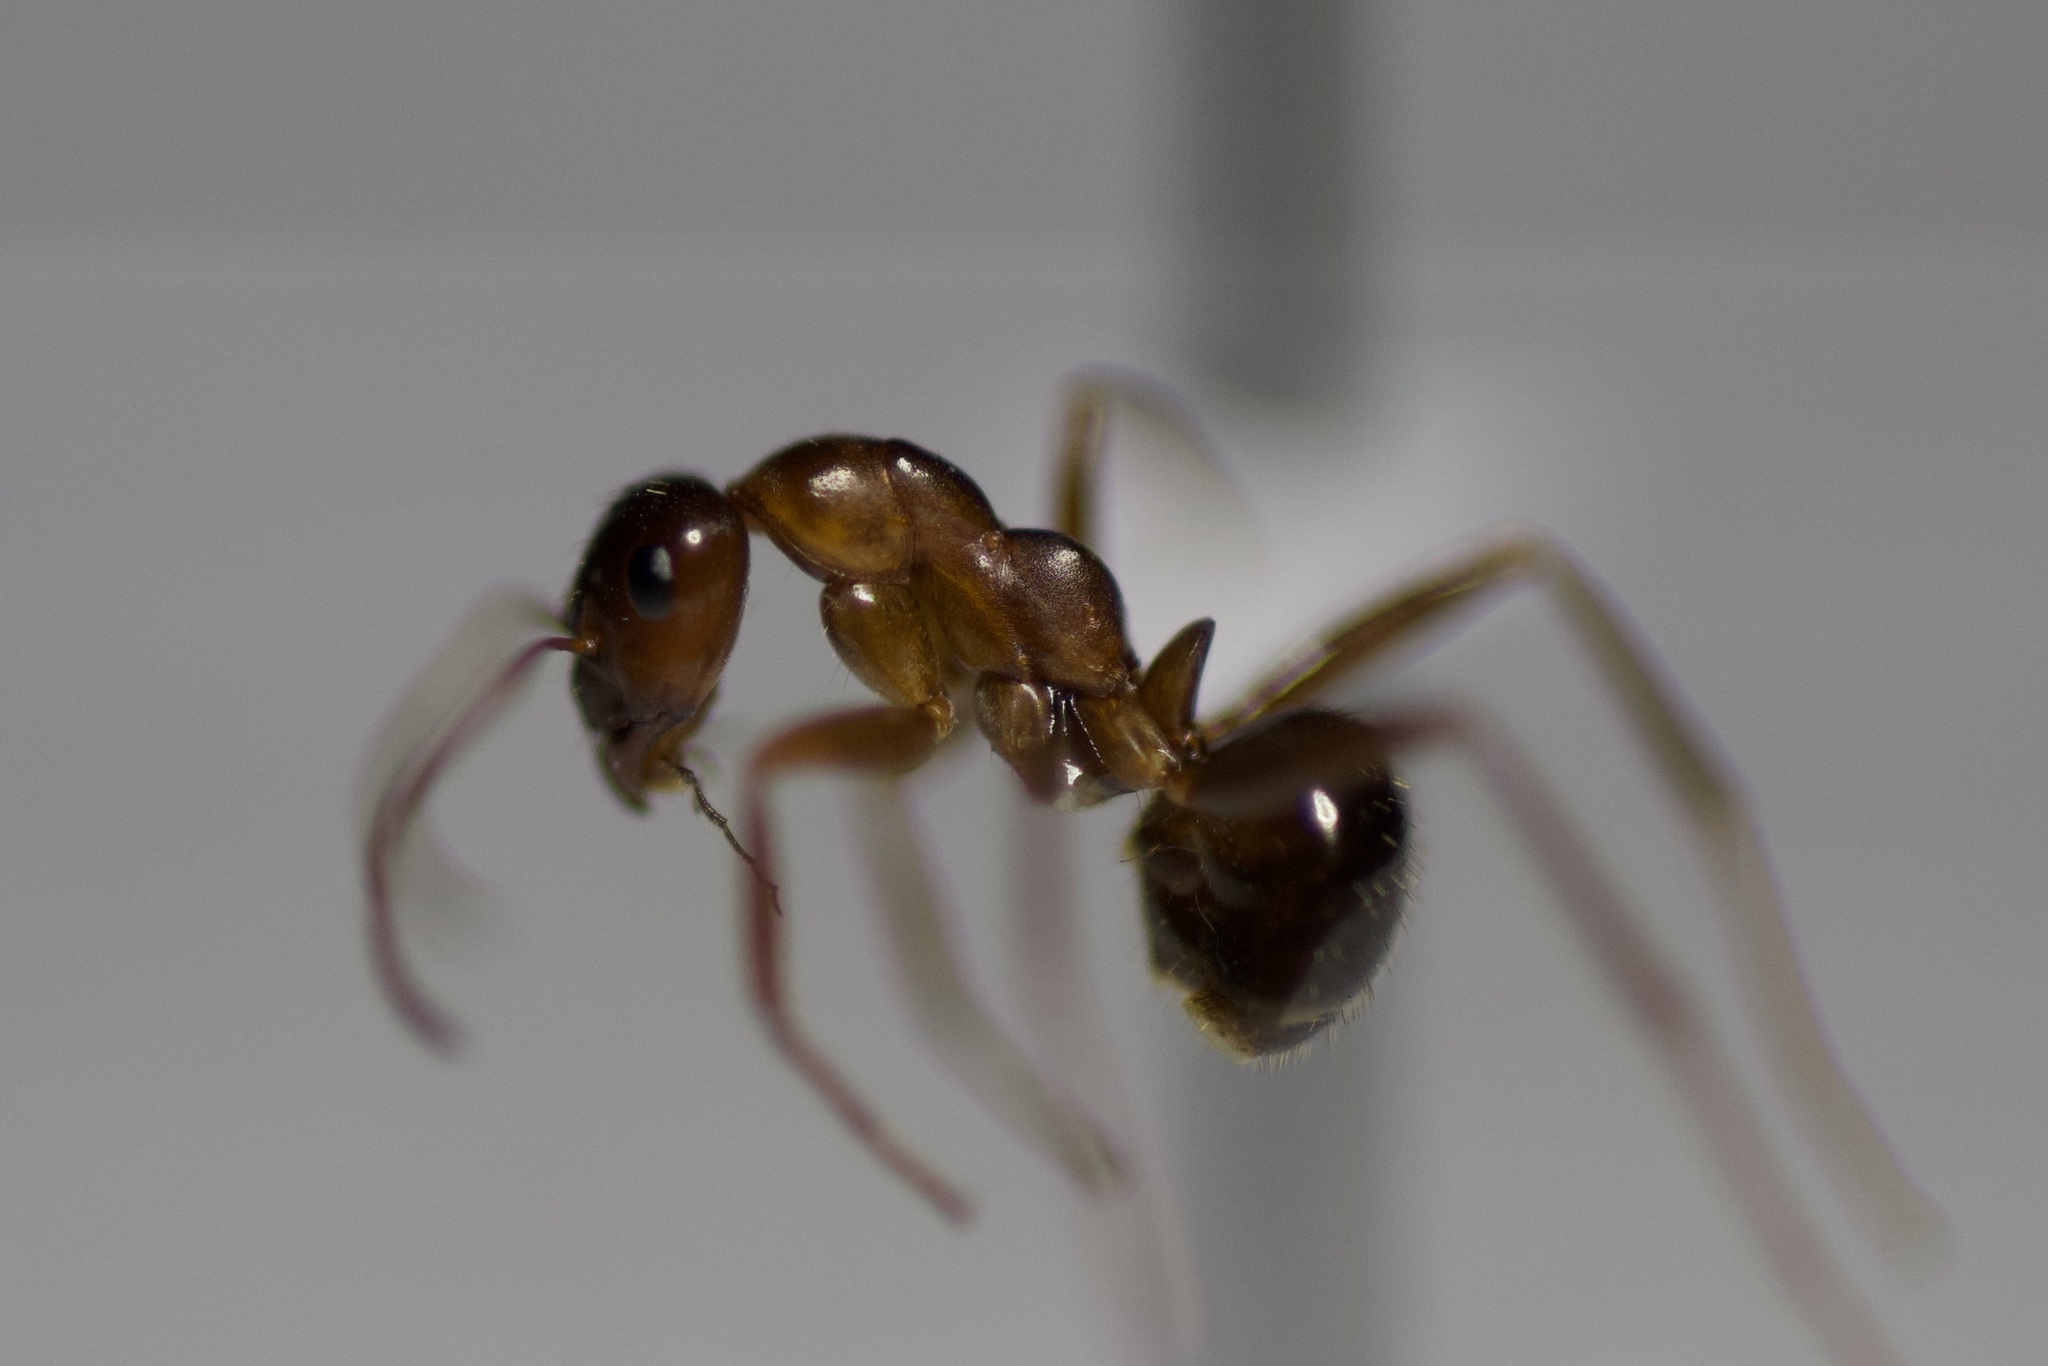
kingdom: Animalia
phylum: Arthropoda
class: Insecta
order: Hymenoptera
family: Formicidae
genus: Formica
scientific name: Formica incerta
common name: Uncertain field ant
